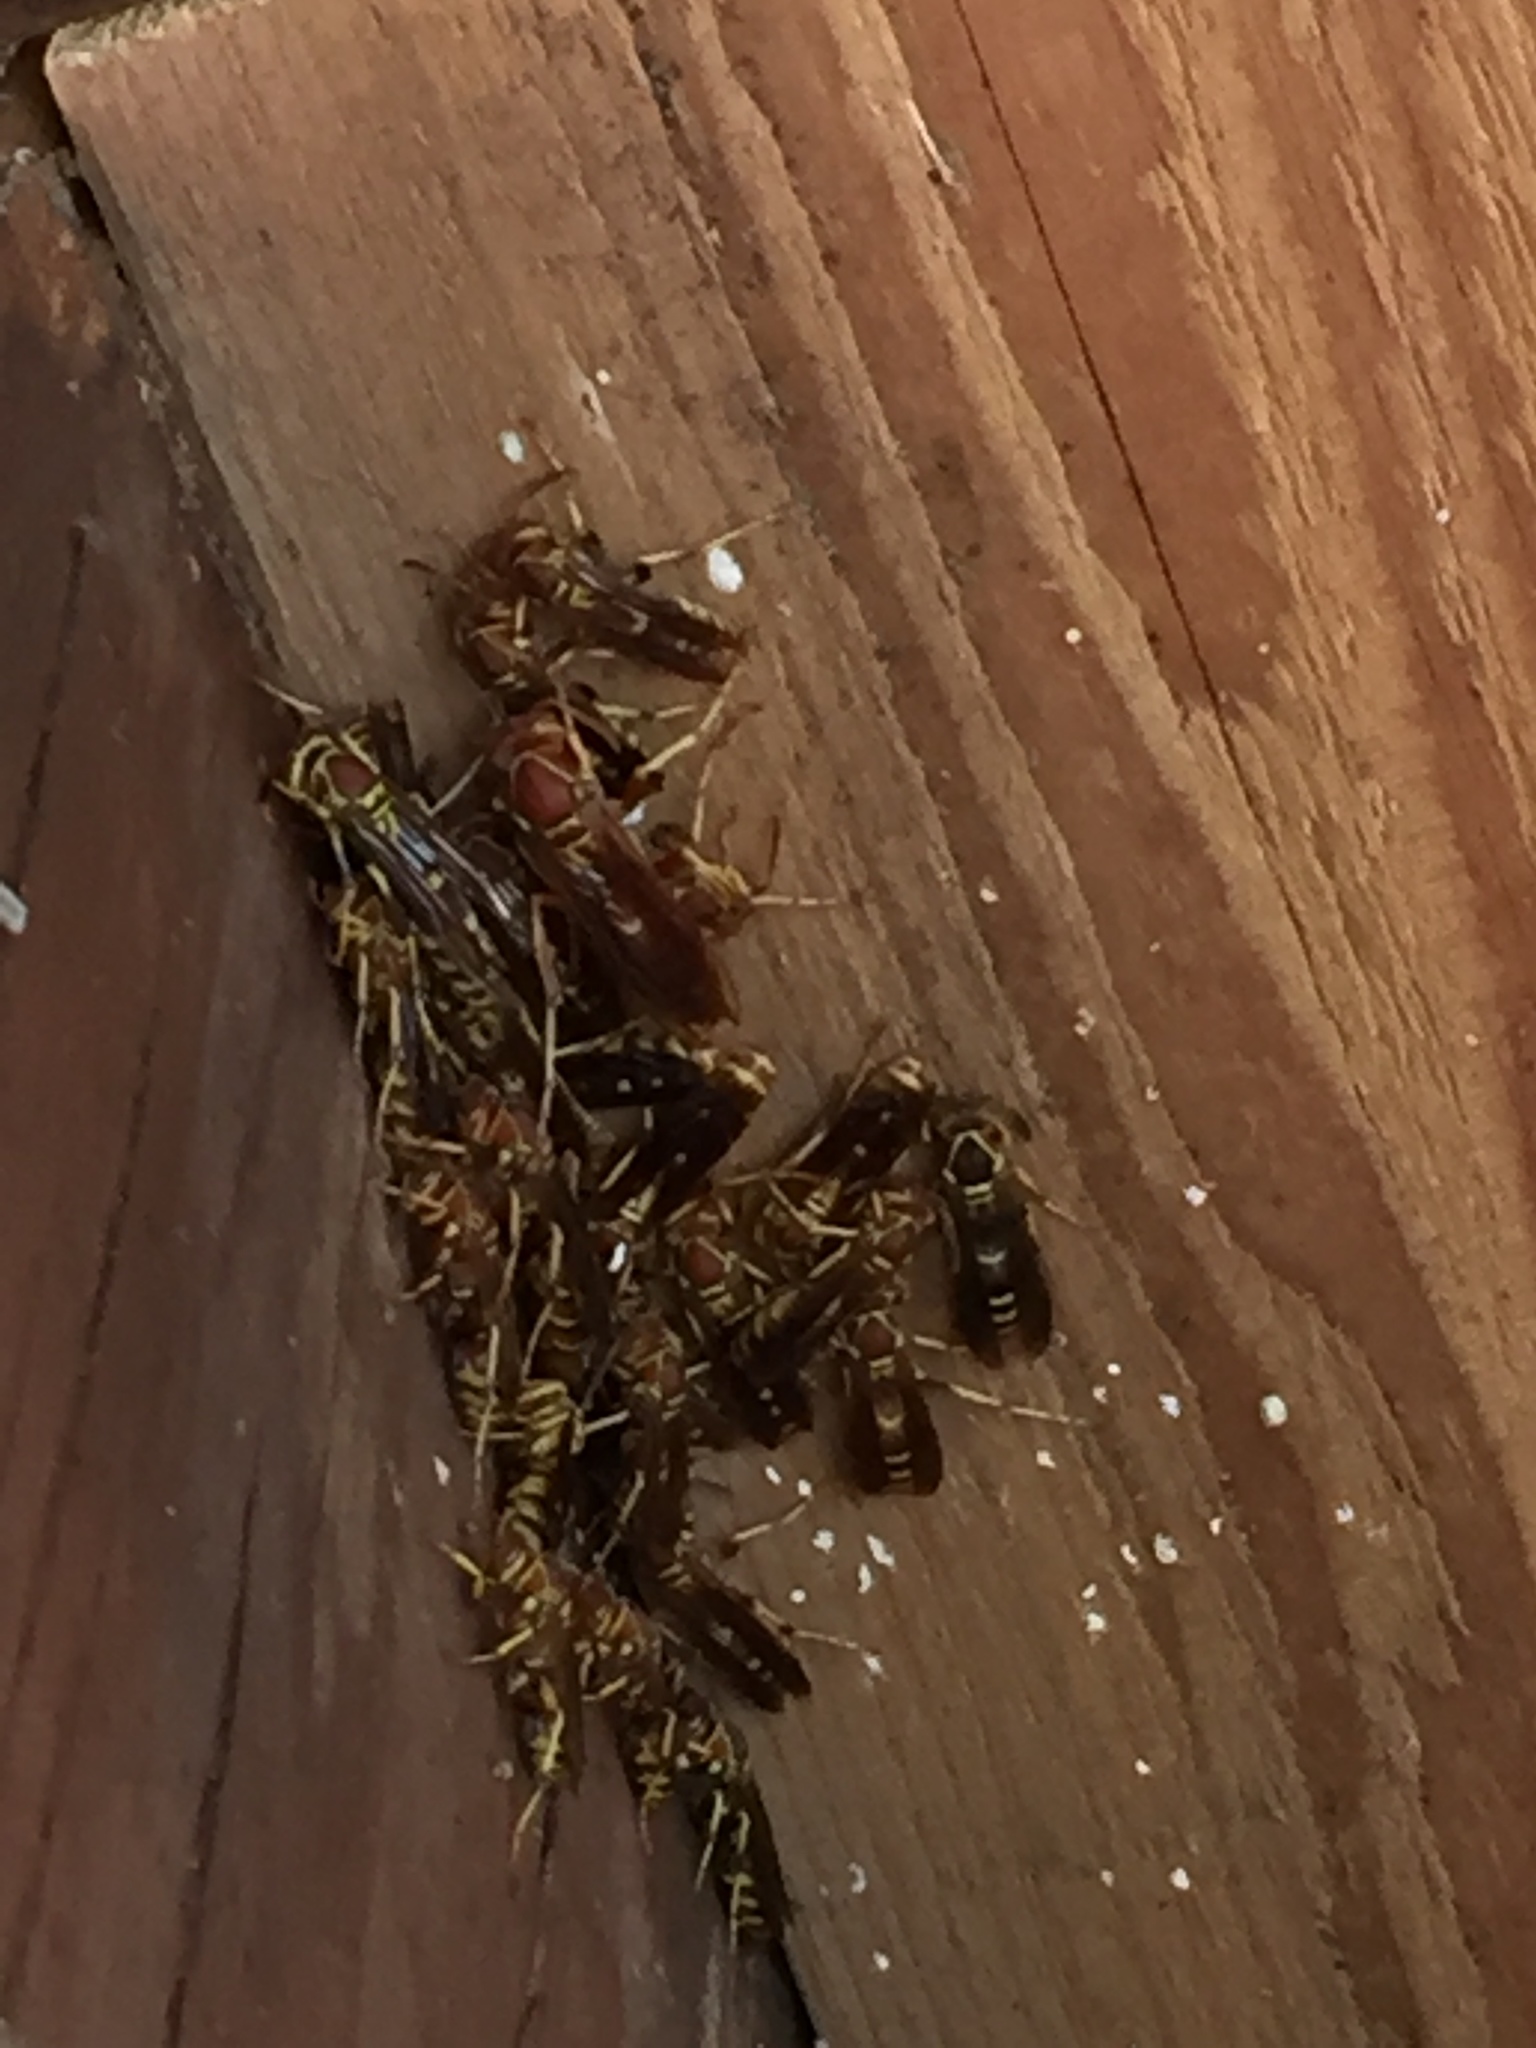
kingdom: Animalia
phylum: Arthropoda
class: Insecta
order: Hymenoptera
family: Eumenidae
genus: Polistes
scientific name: Polistes
